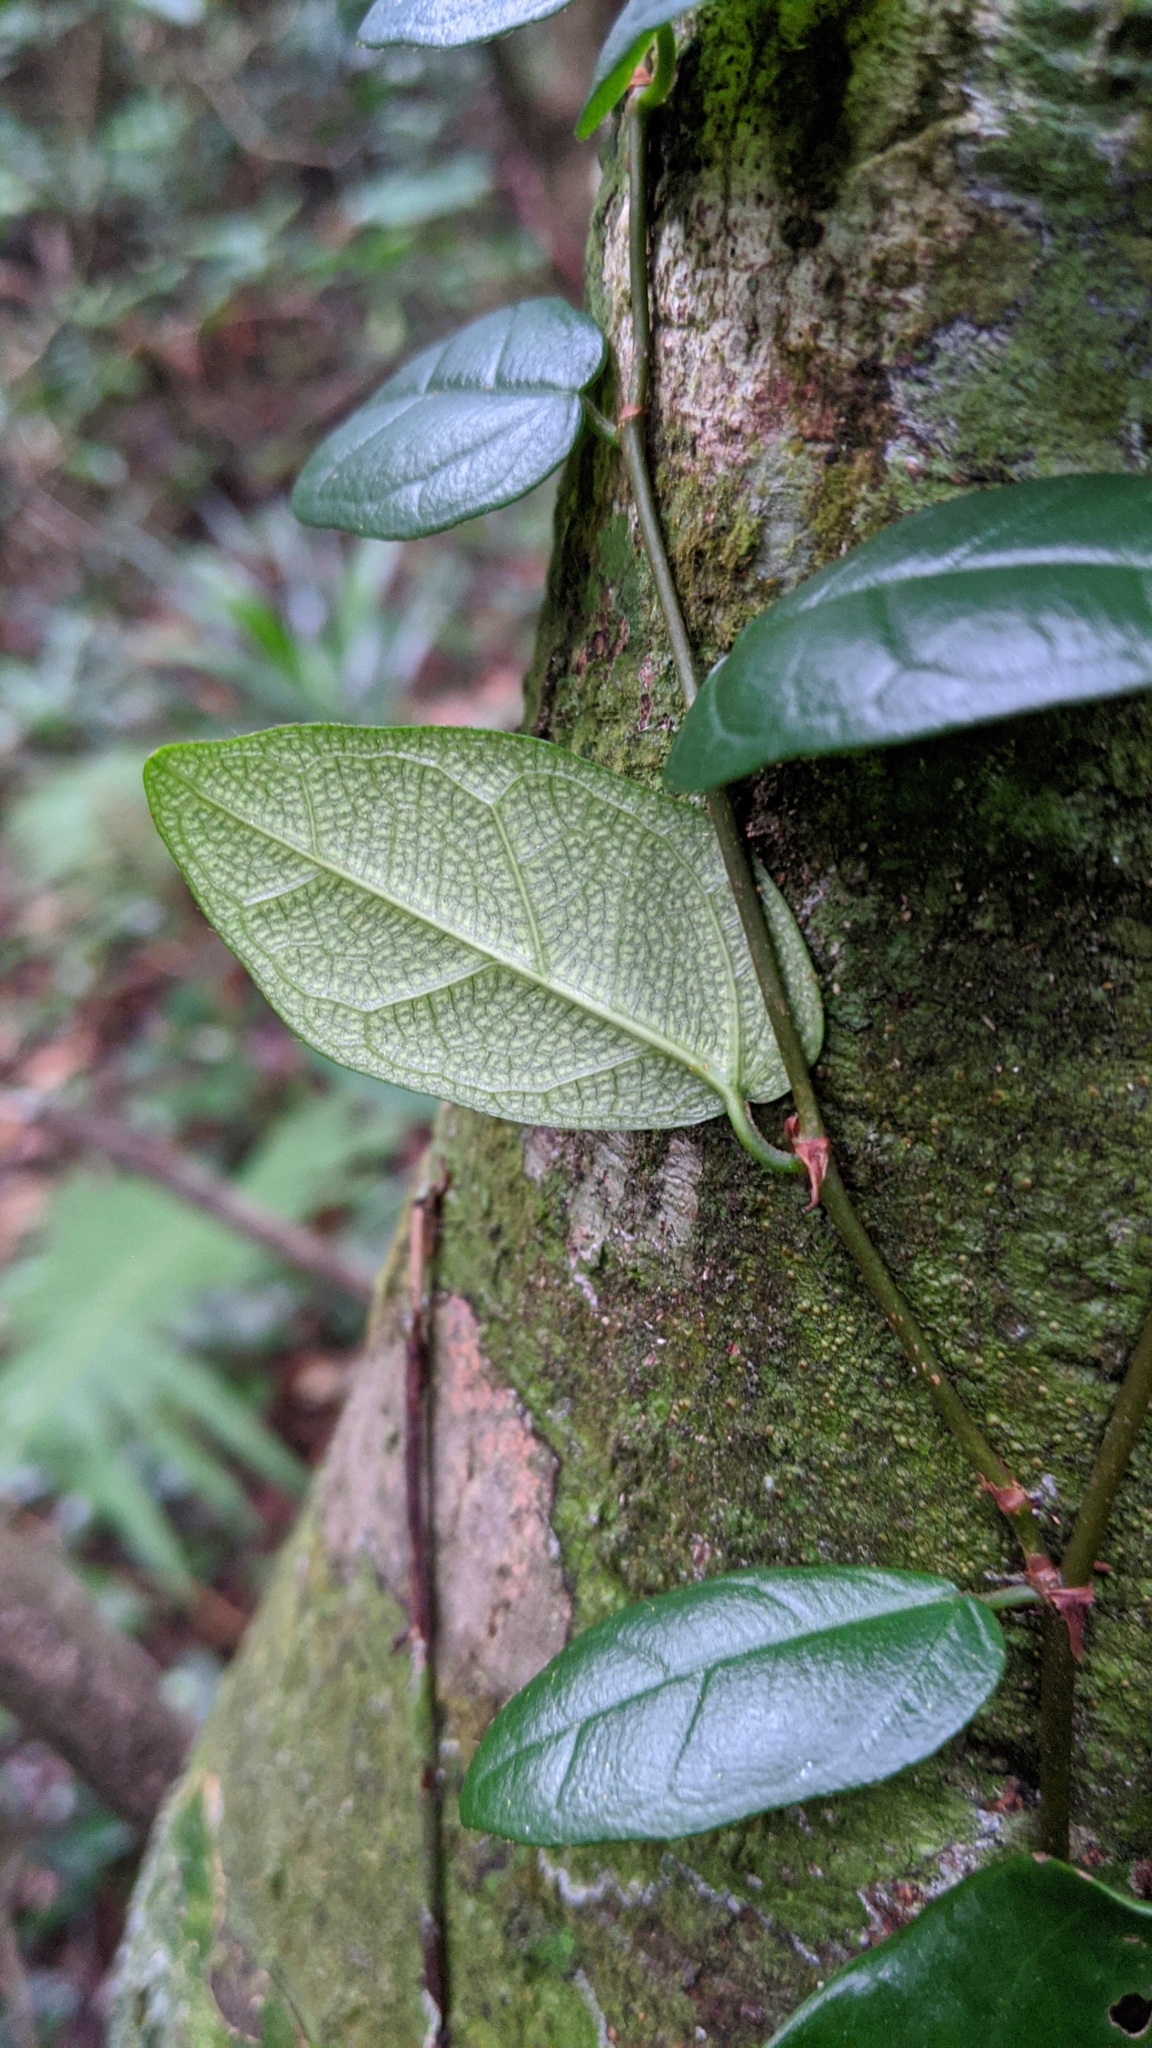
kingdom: Plantae
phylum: Tracheophyta
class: Magnoliopsida
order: Rosales
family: Moraceae
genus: Ficus
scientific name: Ficus punctata
